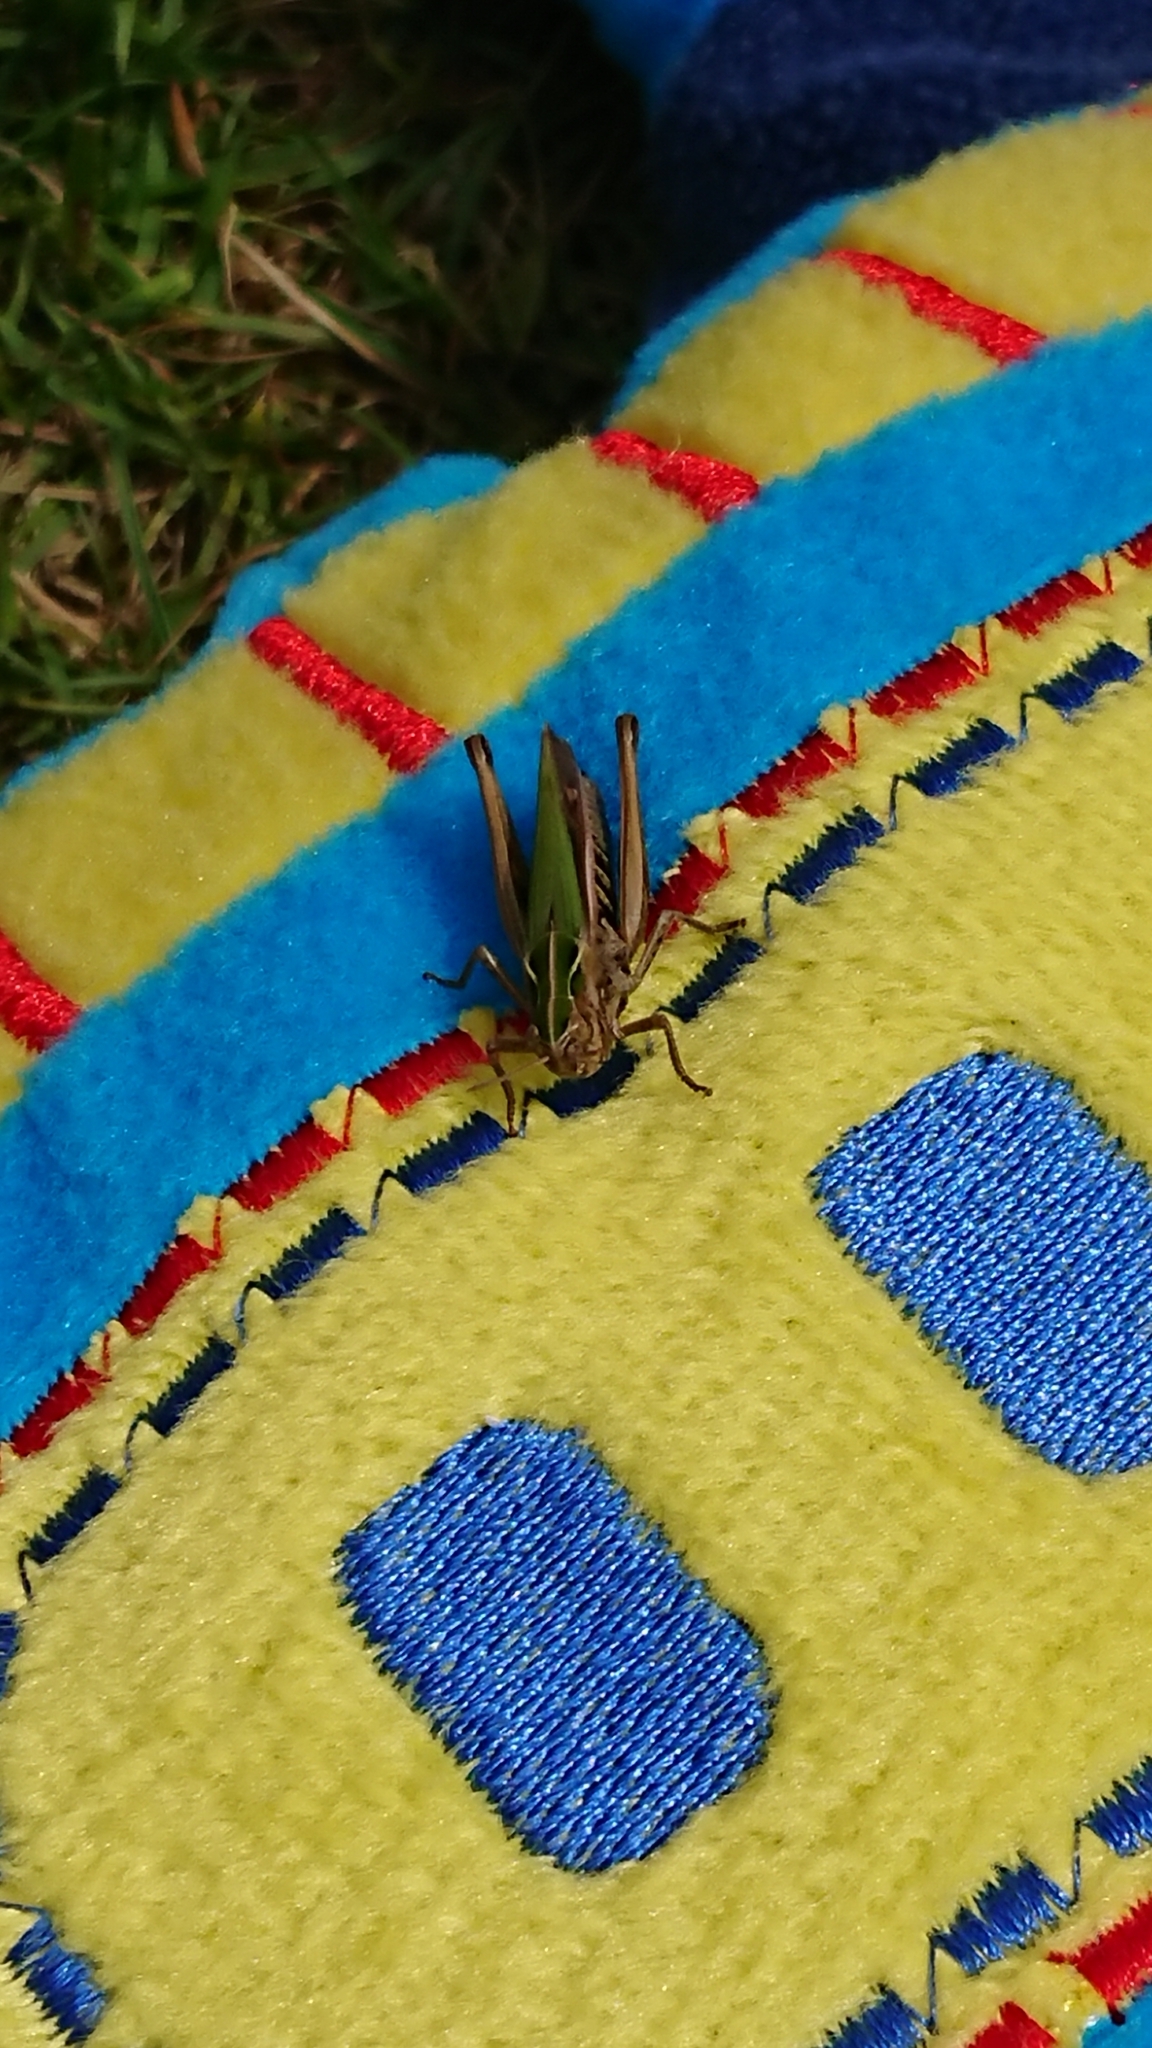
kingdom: Animalia
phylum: Arthropoda
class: Insecta
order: Orthoptera
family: Acrididae
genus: Omocestus
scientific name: Omocestus viridulus
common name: Common green grasshopper
